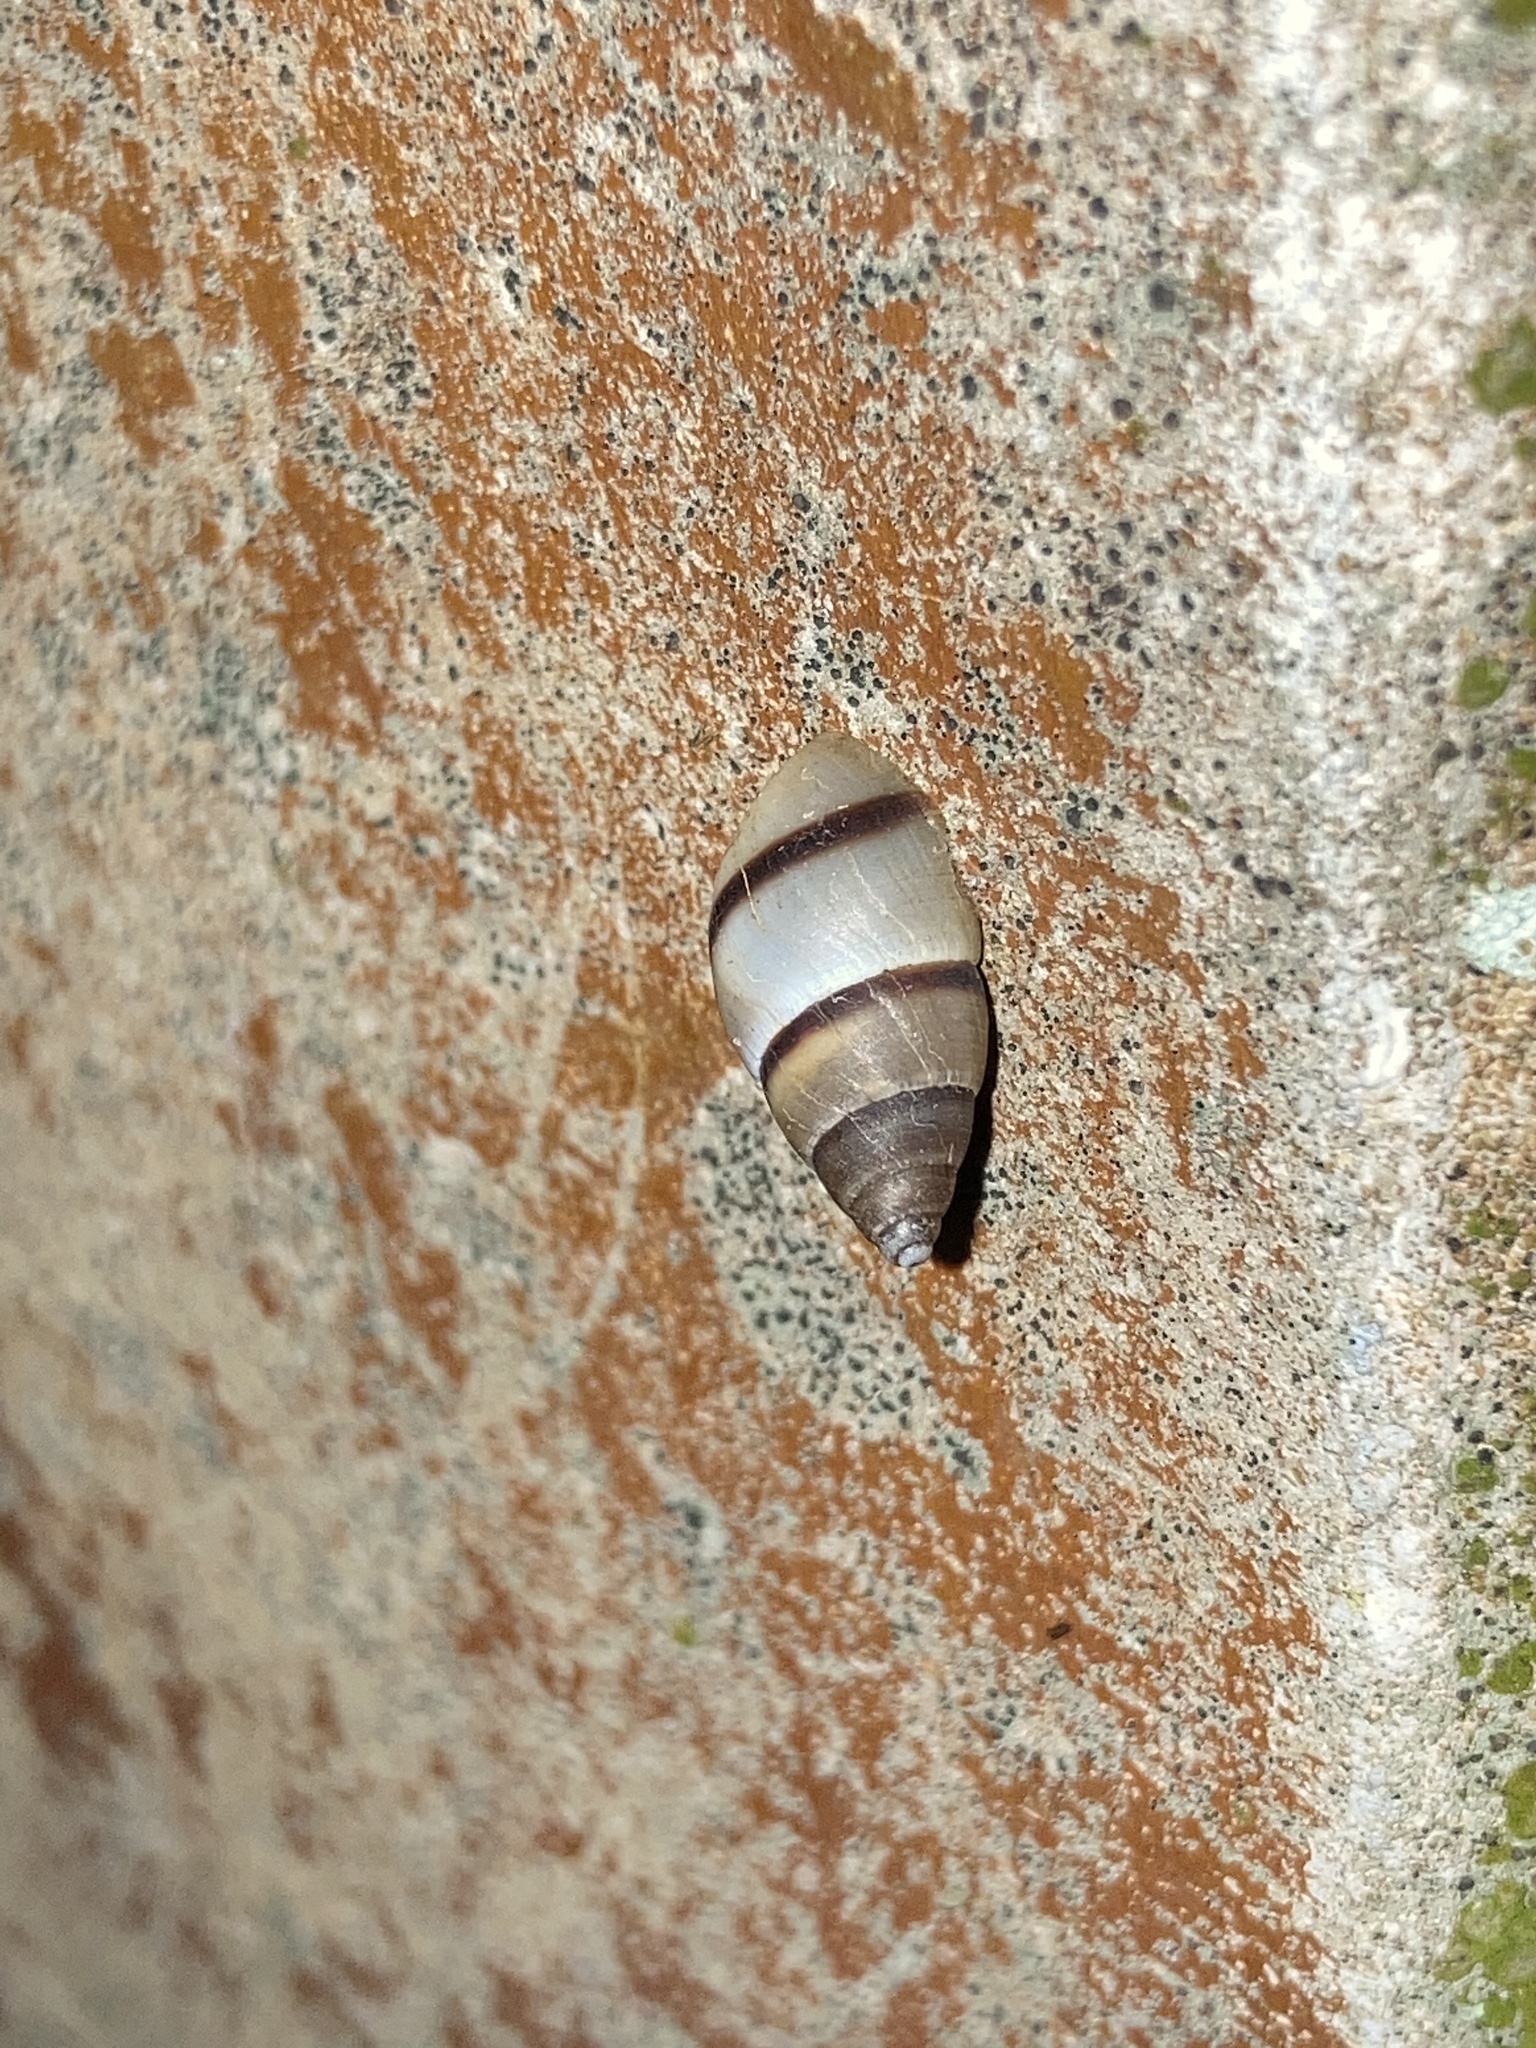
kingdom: Animalia
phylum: Mollusca
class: Gastropoda
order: Stylommatophora
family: Bulimulidae
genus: Bulimulus
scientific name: Bulimulus guadalupensis
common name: West indian bulimulus
